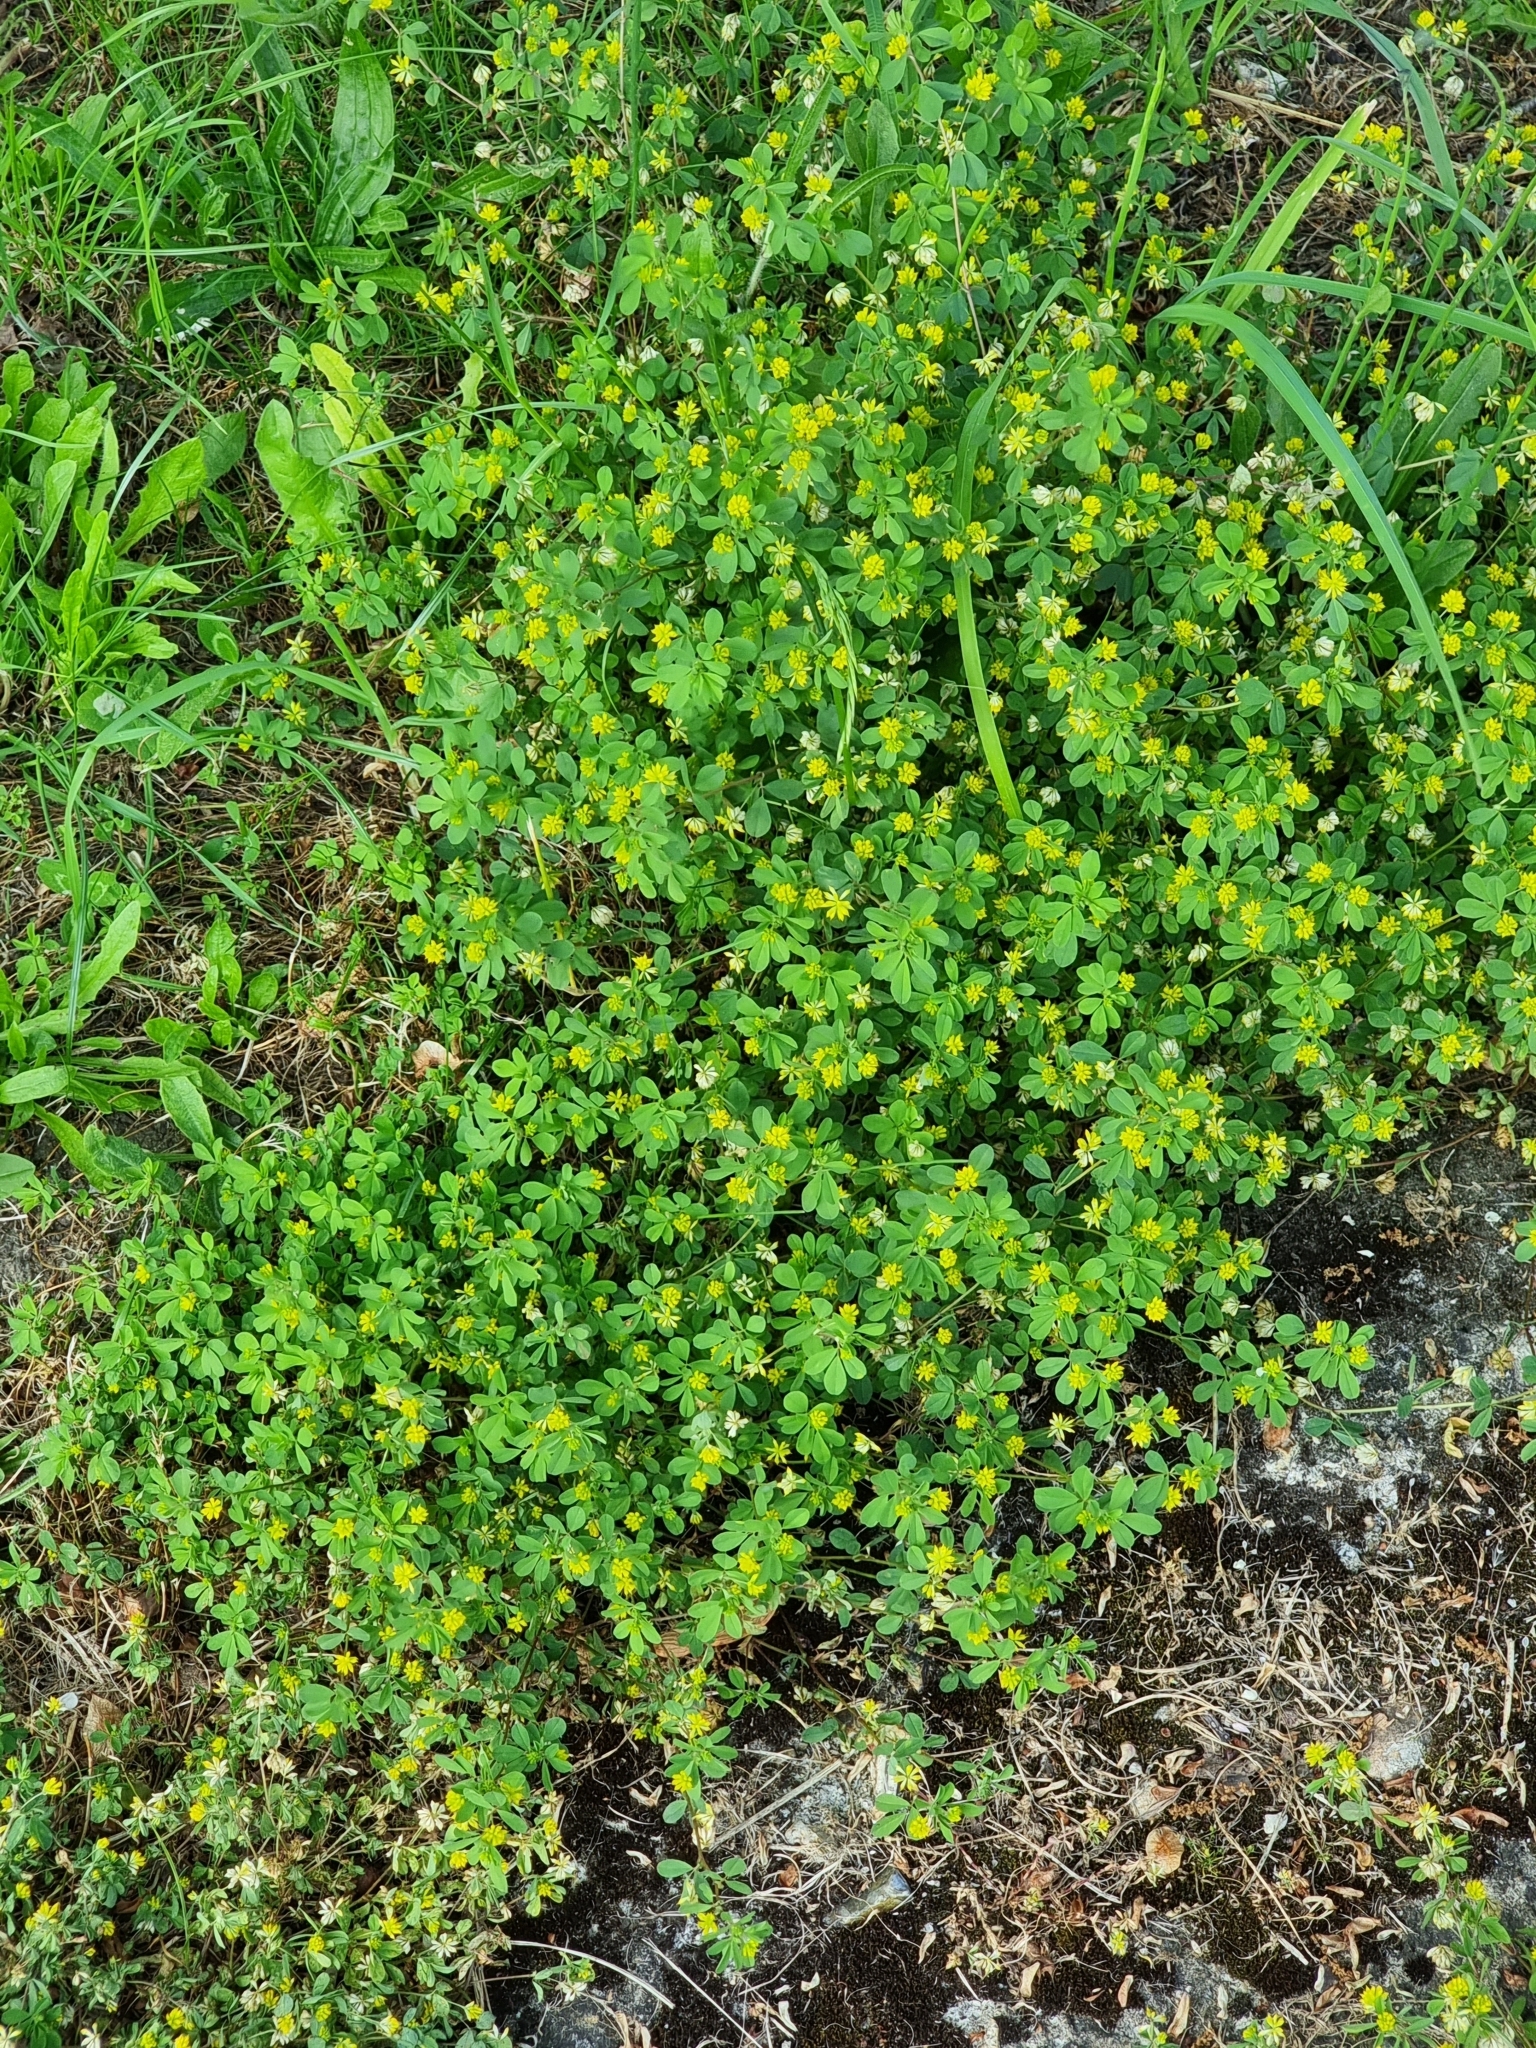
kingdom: Plantae
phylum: Tracheophyta
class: Magnoliopsida
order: Fabales
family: Fabaceae
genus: Trifolium
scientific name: Trifolium dubium
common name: Suckling clover
